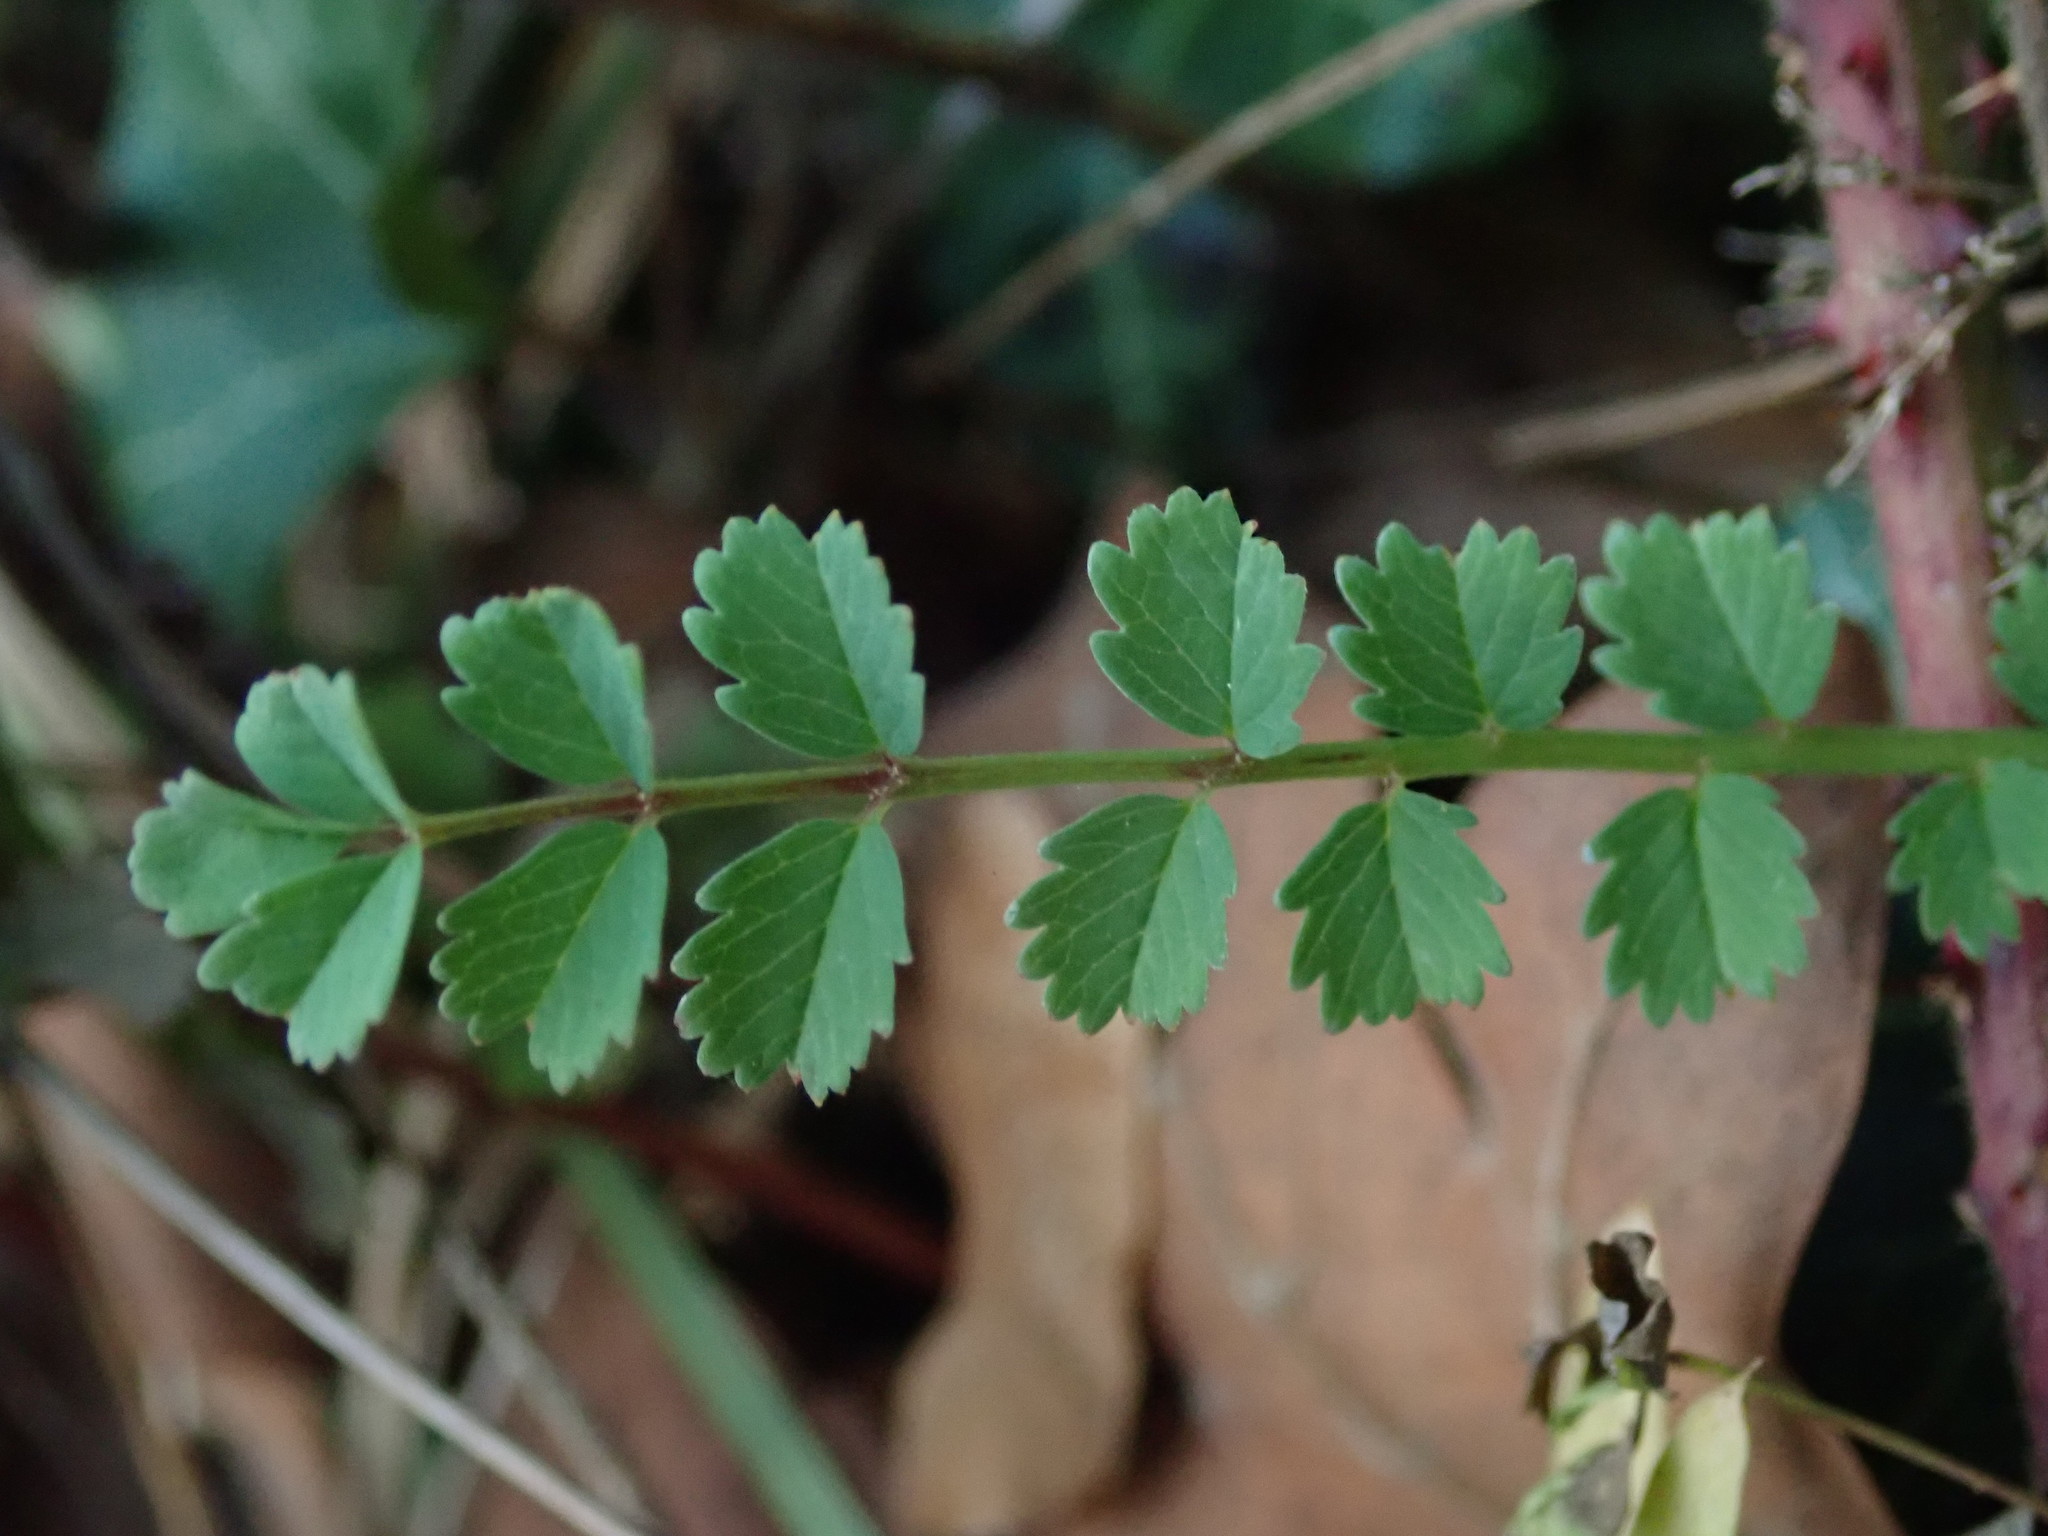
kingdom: Plantae
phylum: Tracheophyta
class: Magnoliopsida
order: Rosales
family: Rosaceae
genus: Poterium
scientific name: Poterium sanguisorba
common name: Salad burnet
